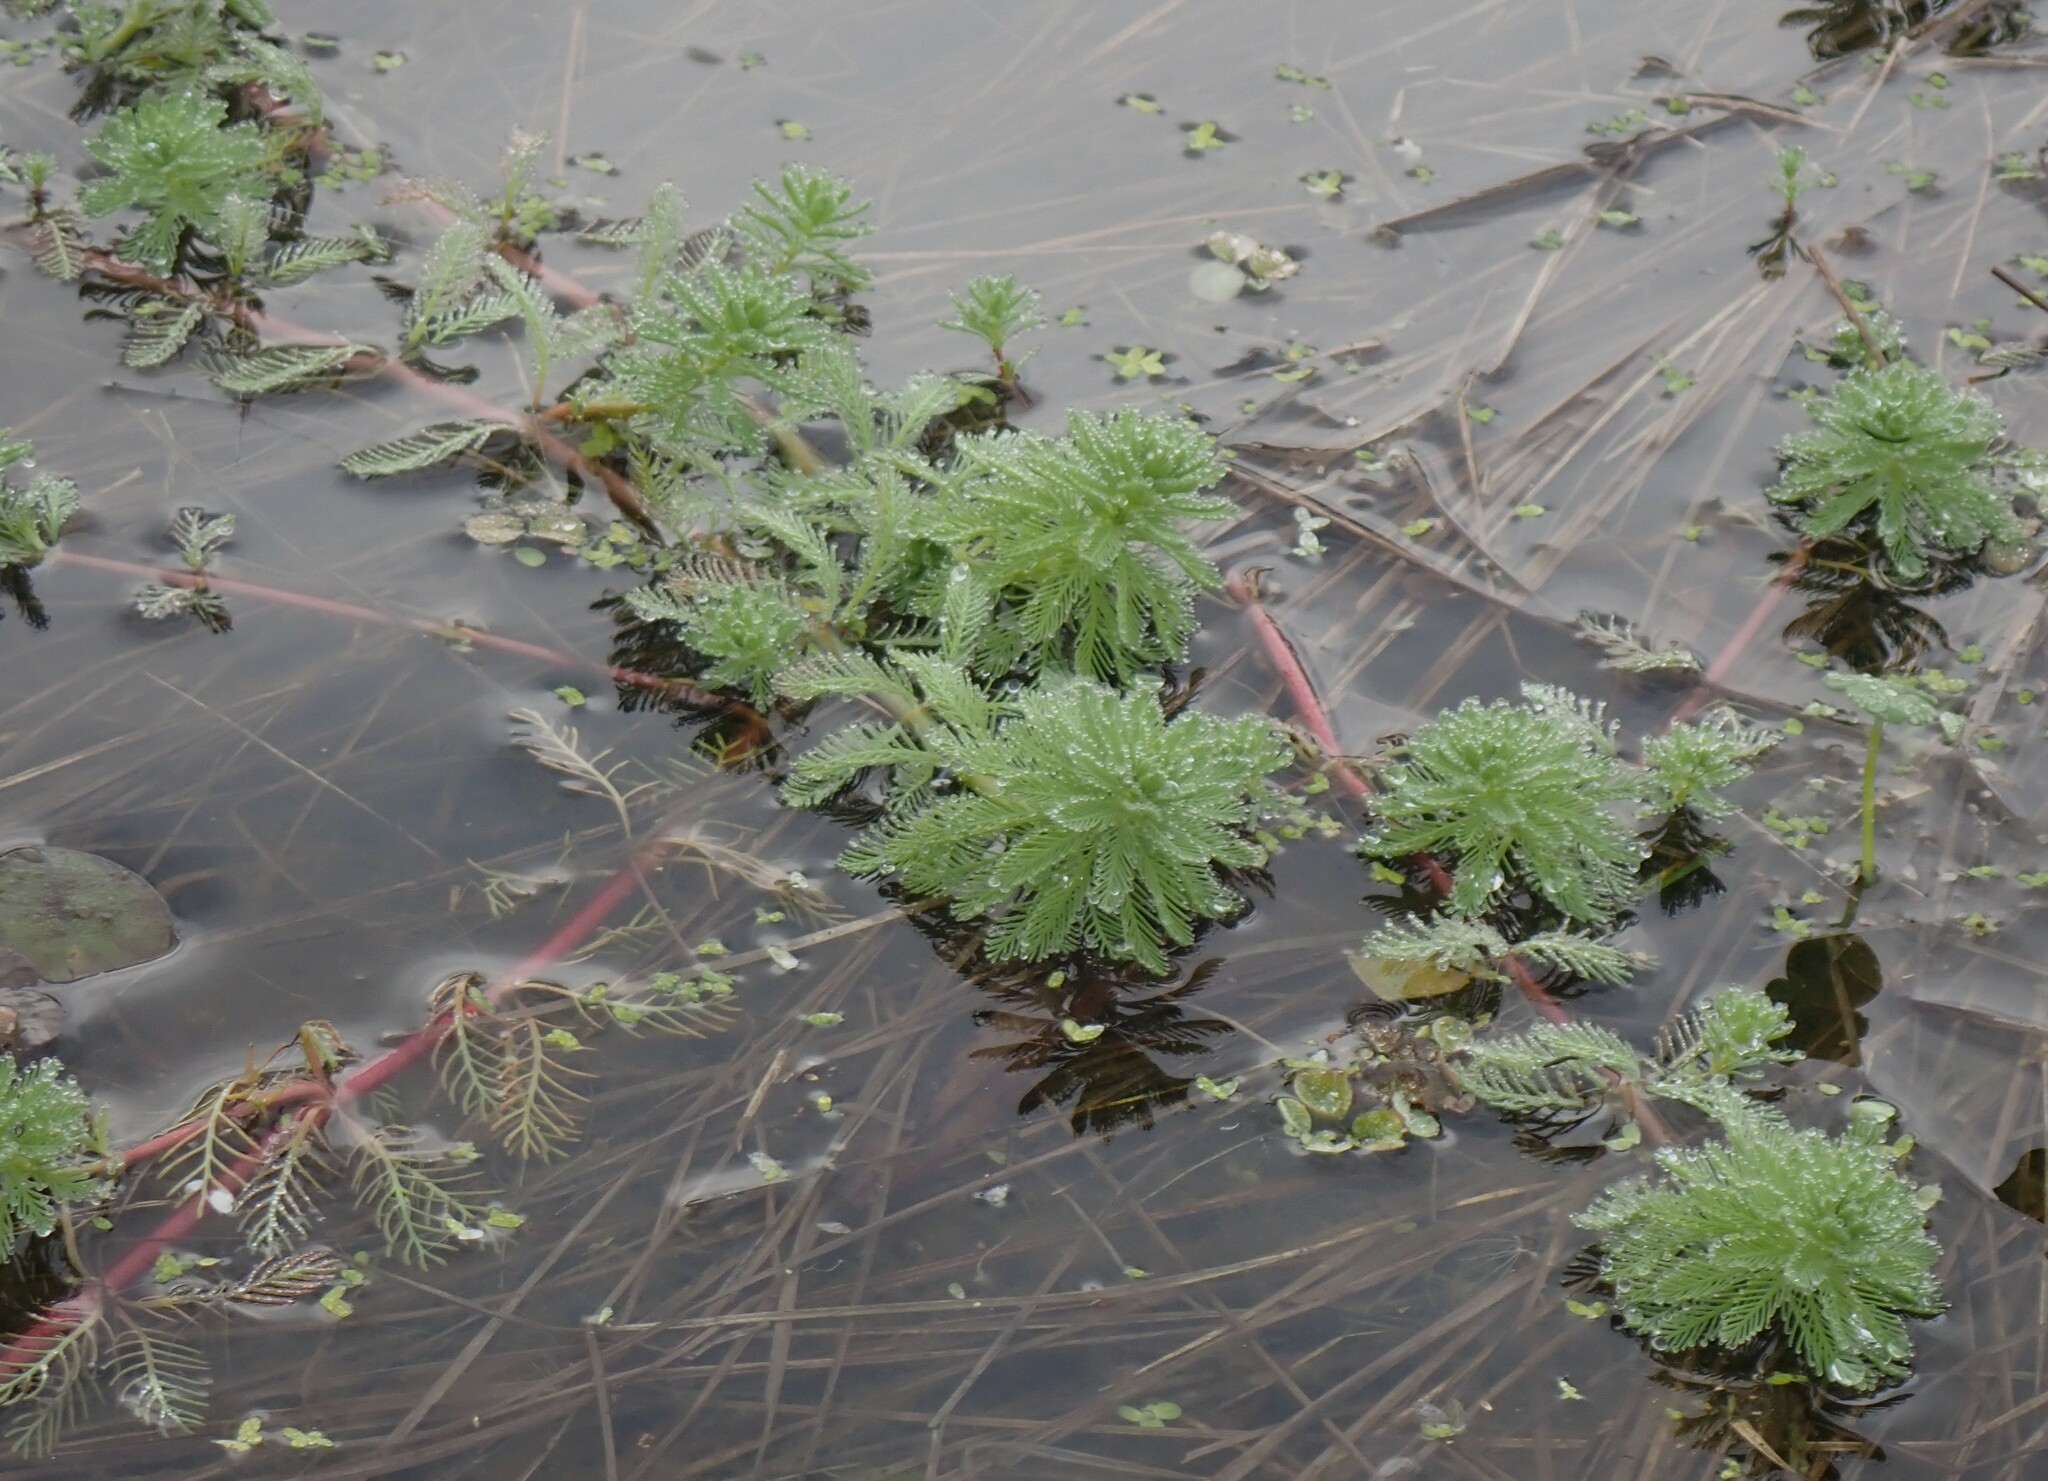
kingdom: Plantae
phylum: Tracheophyta
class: Magnoliopsida
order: Saxifragales
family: Haloragaceae
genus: Myriophyllum
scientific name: Myriophyllum aquaticum
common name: Parrot's feather
